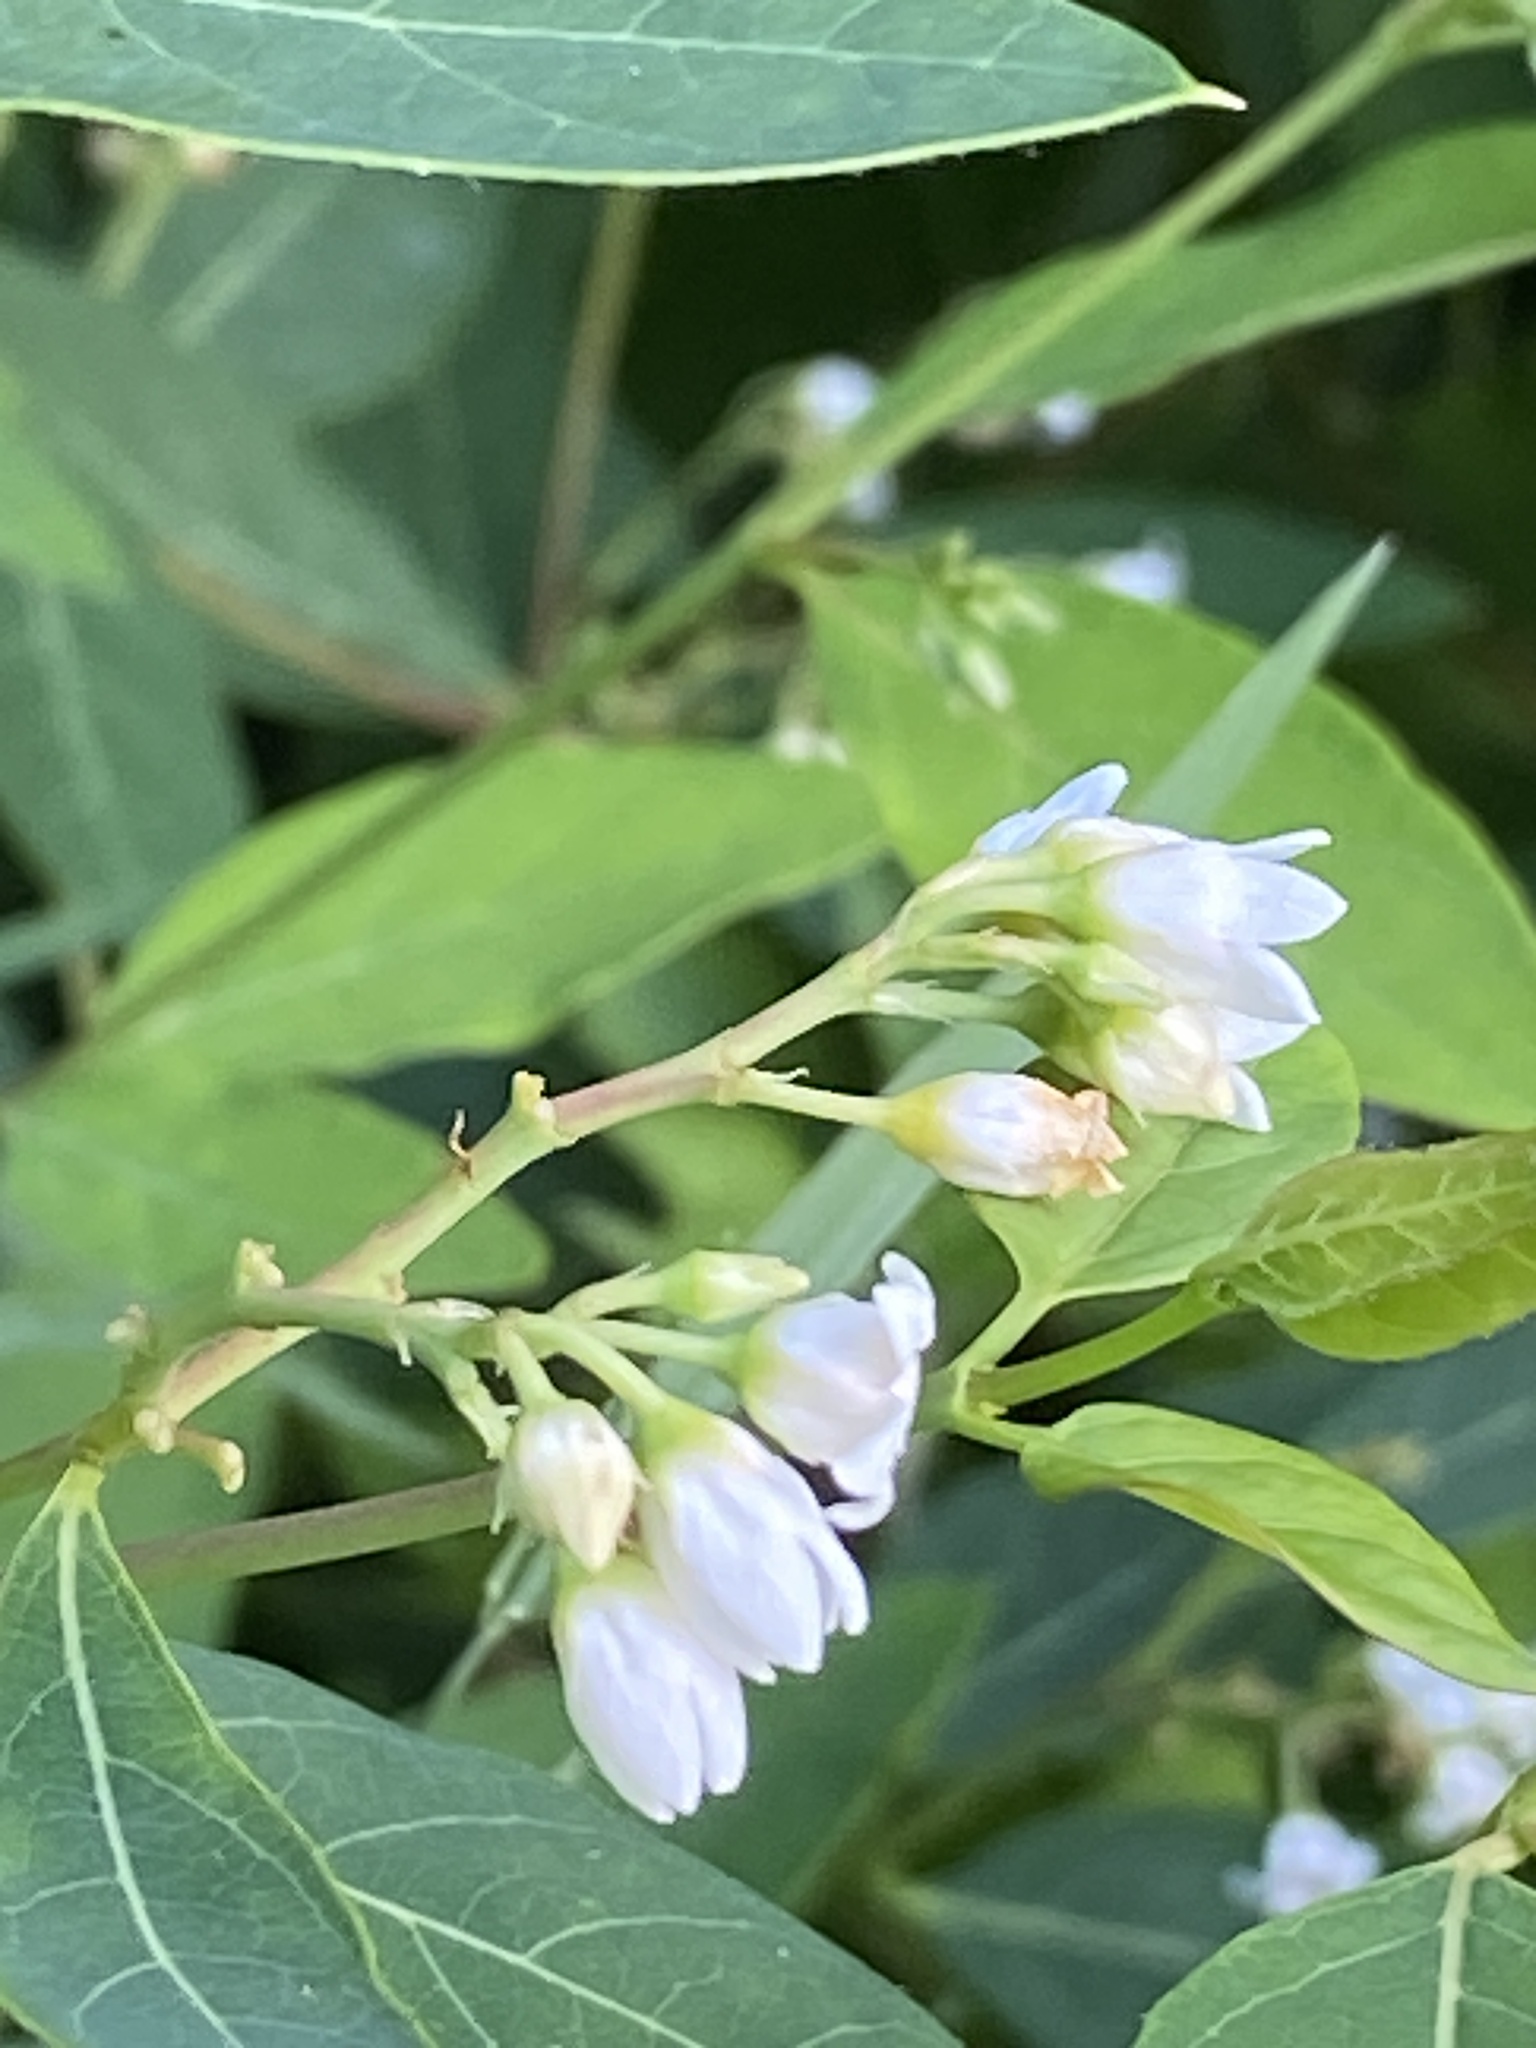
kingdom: Plantae
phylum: Tracheophyta
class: Magnoliopsida
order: Gentianales
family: Apocynaceae
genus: Apocynum
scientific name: Apocynum androsaemifolium
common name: Spreading dogbane
